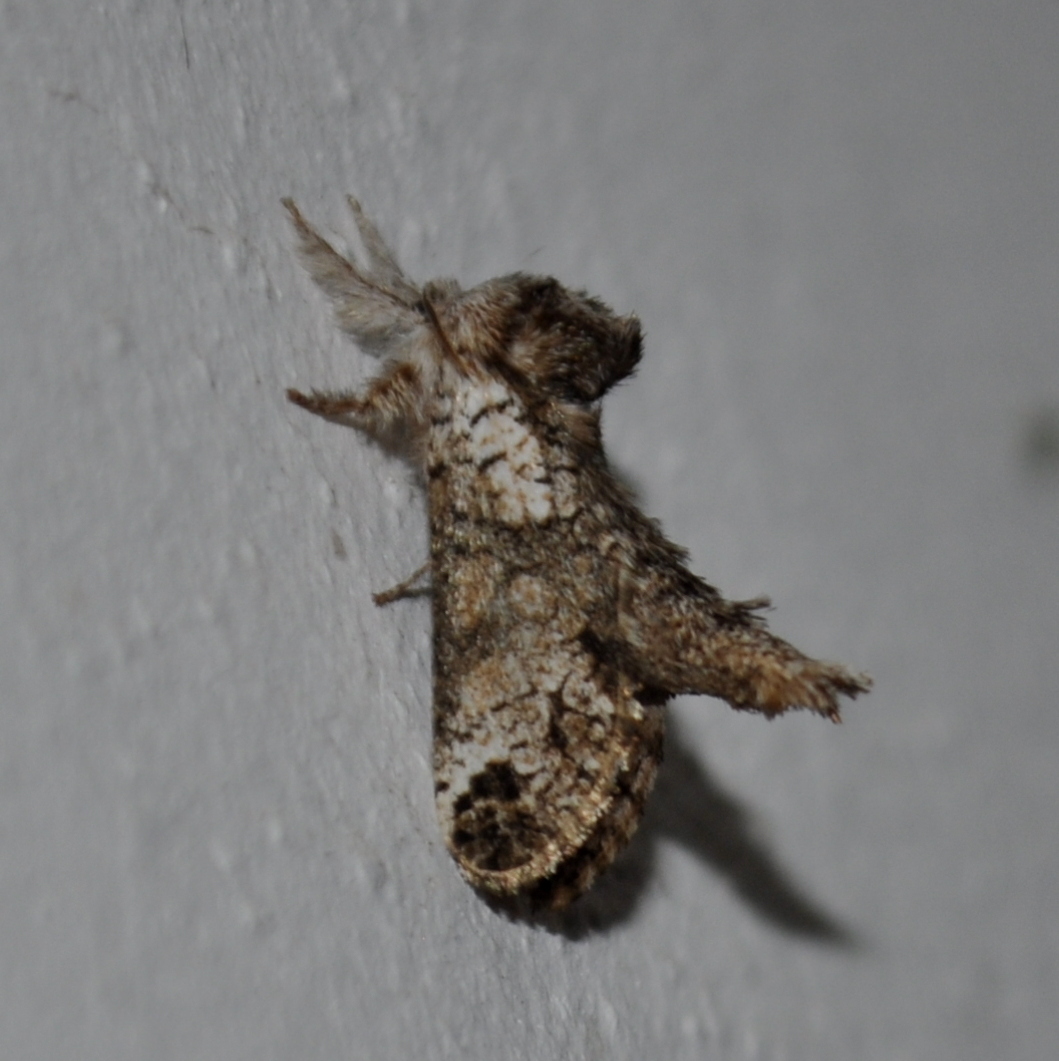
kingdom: Animalia
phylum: Arthropoda
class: Insecta
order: Lepidoptera
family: Cossidae
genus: Langsdorfia
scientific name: Langsdorfia polybia
